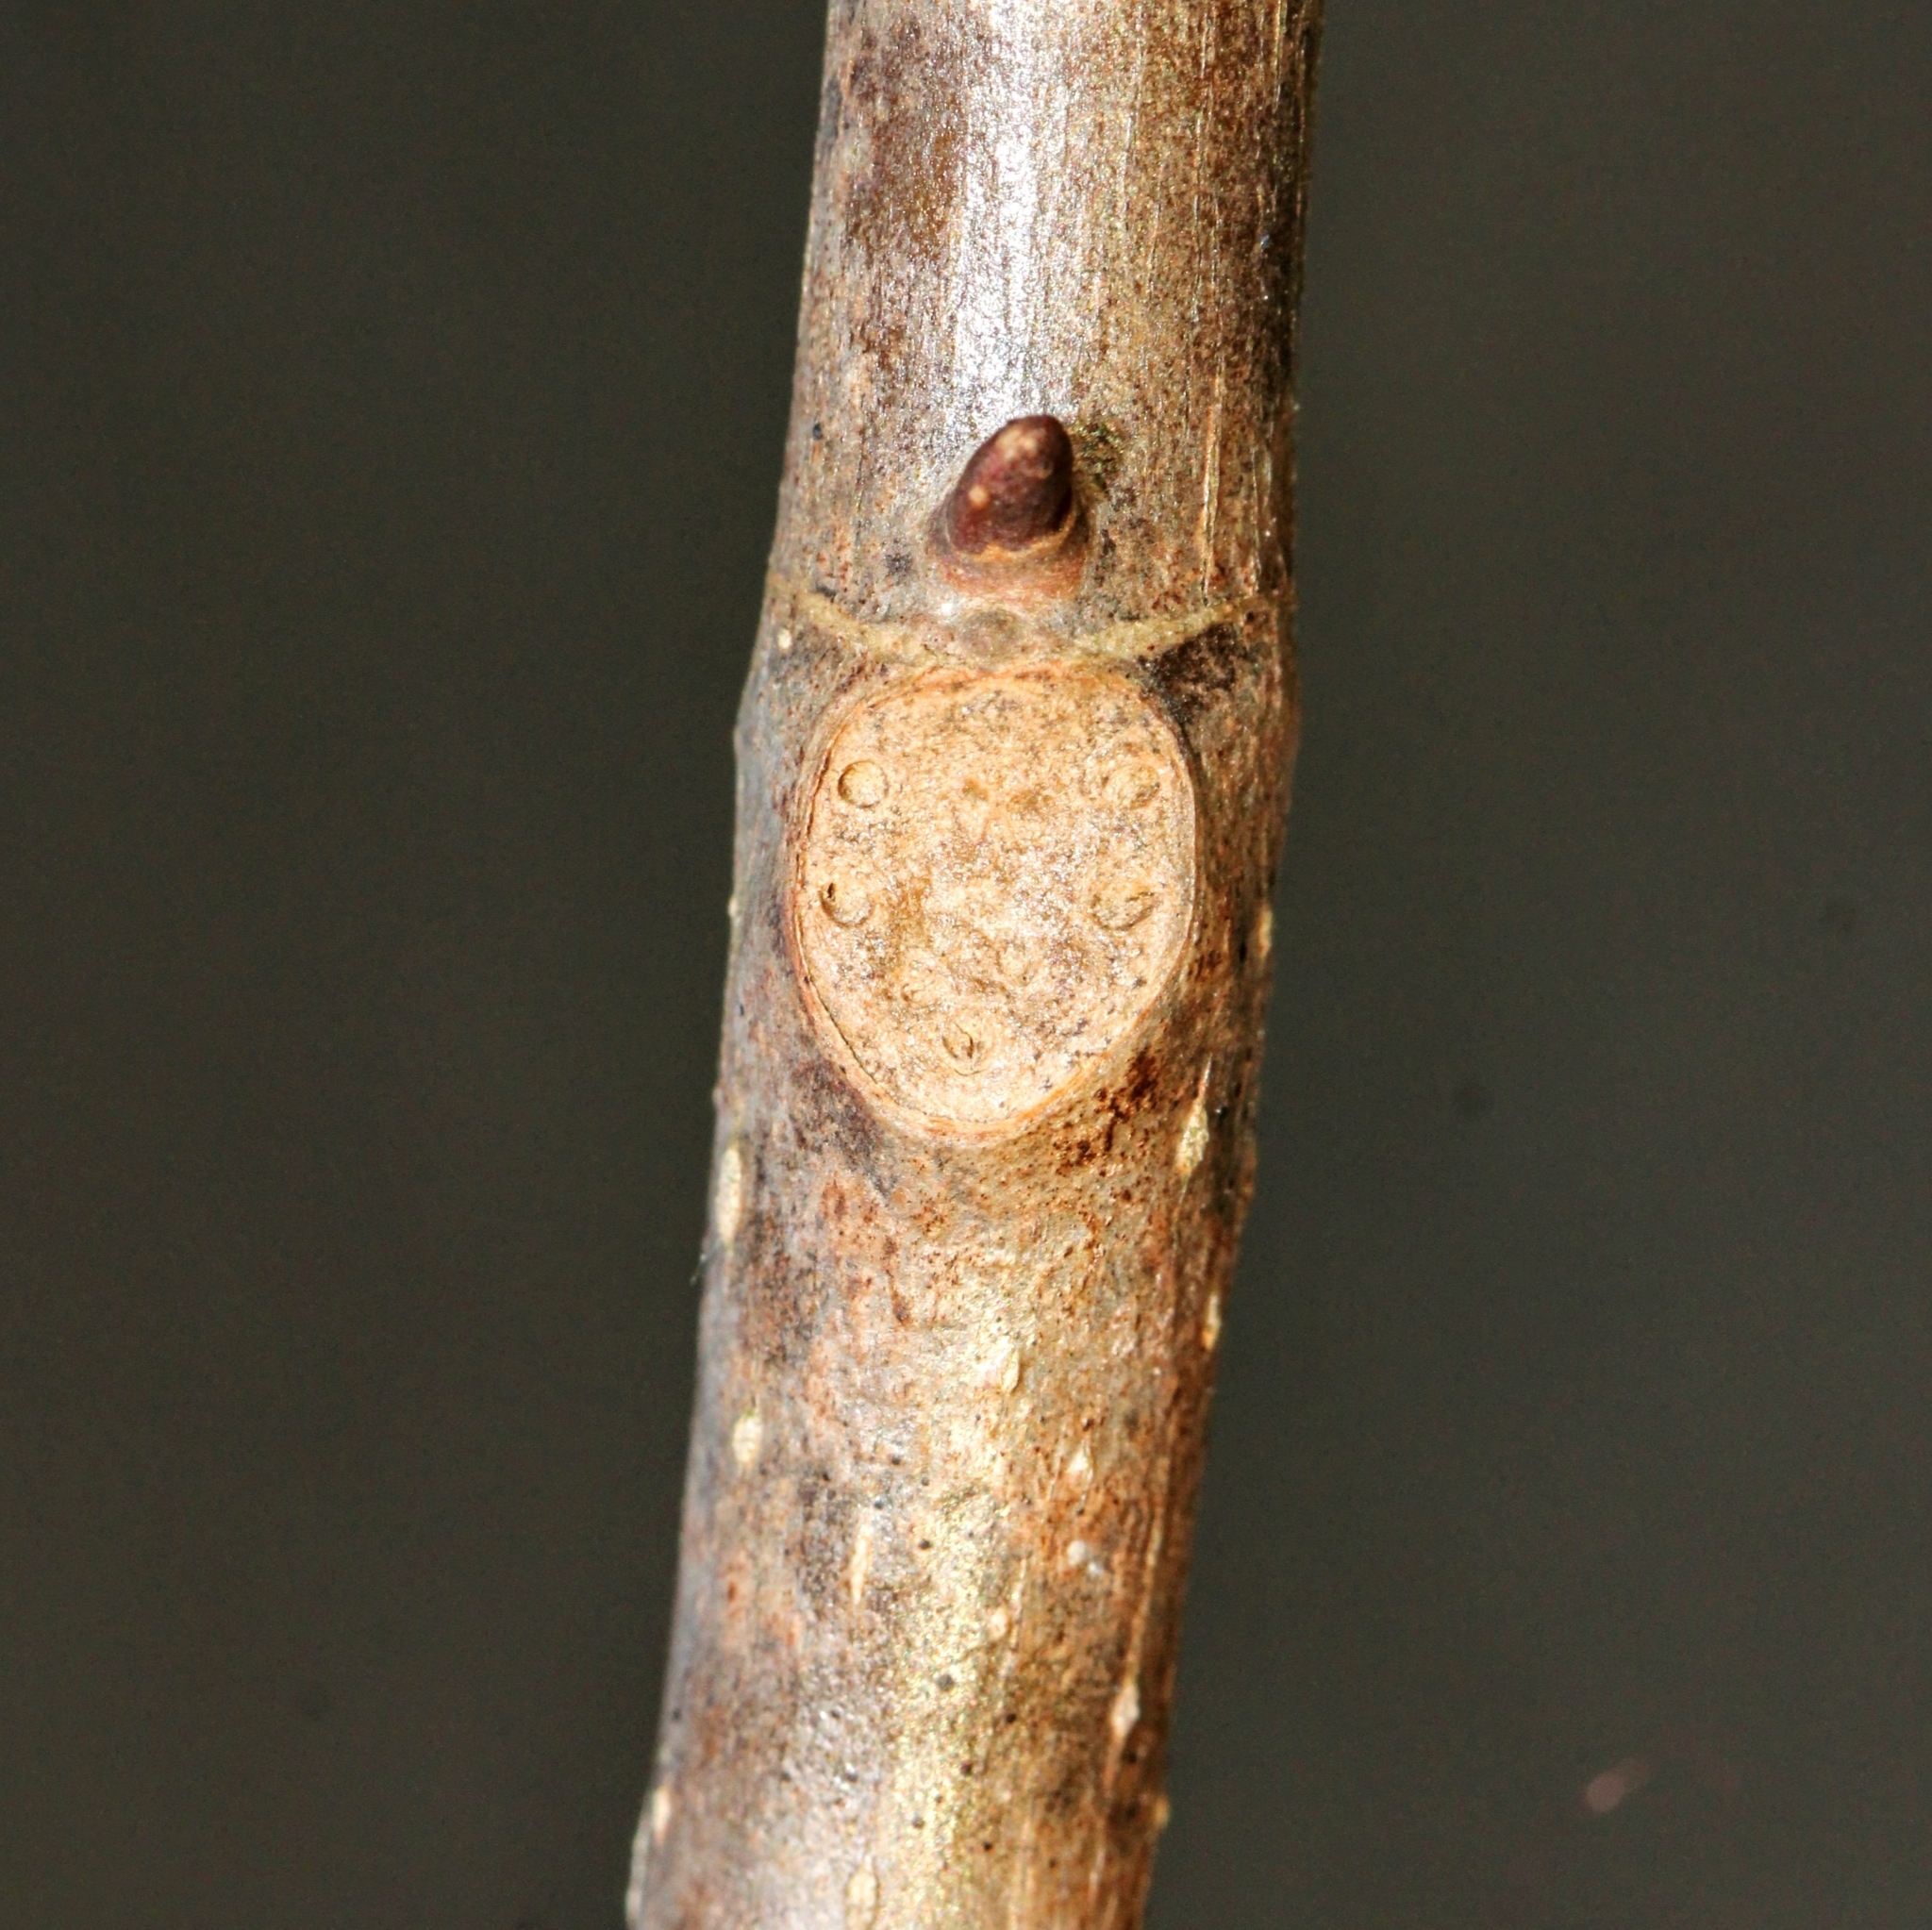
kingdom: Plantae
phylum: Tracheophyta
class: Magnoliopsida
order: Magnoliales
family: Magnoliaceae
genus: Liriodendron
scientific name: Liriodendron tulipifera
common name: Tulip tree
